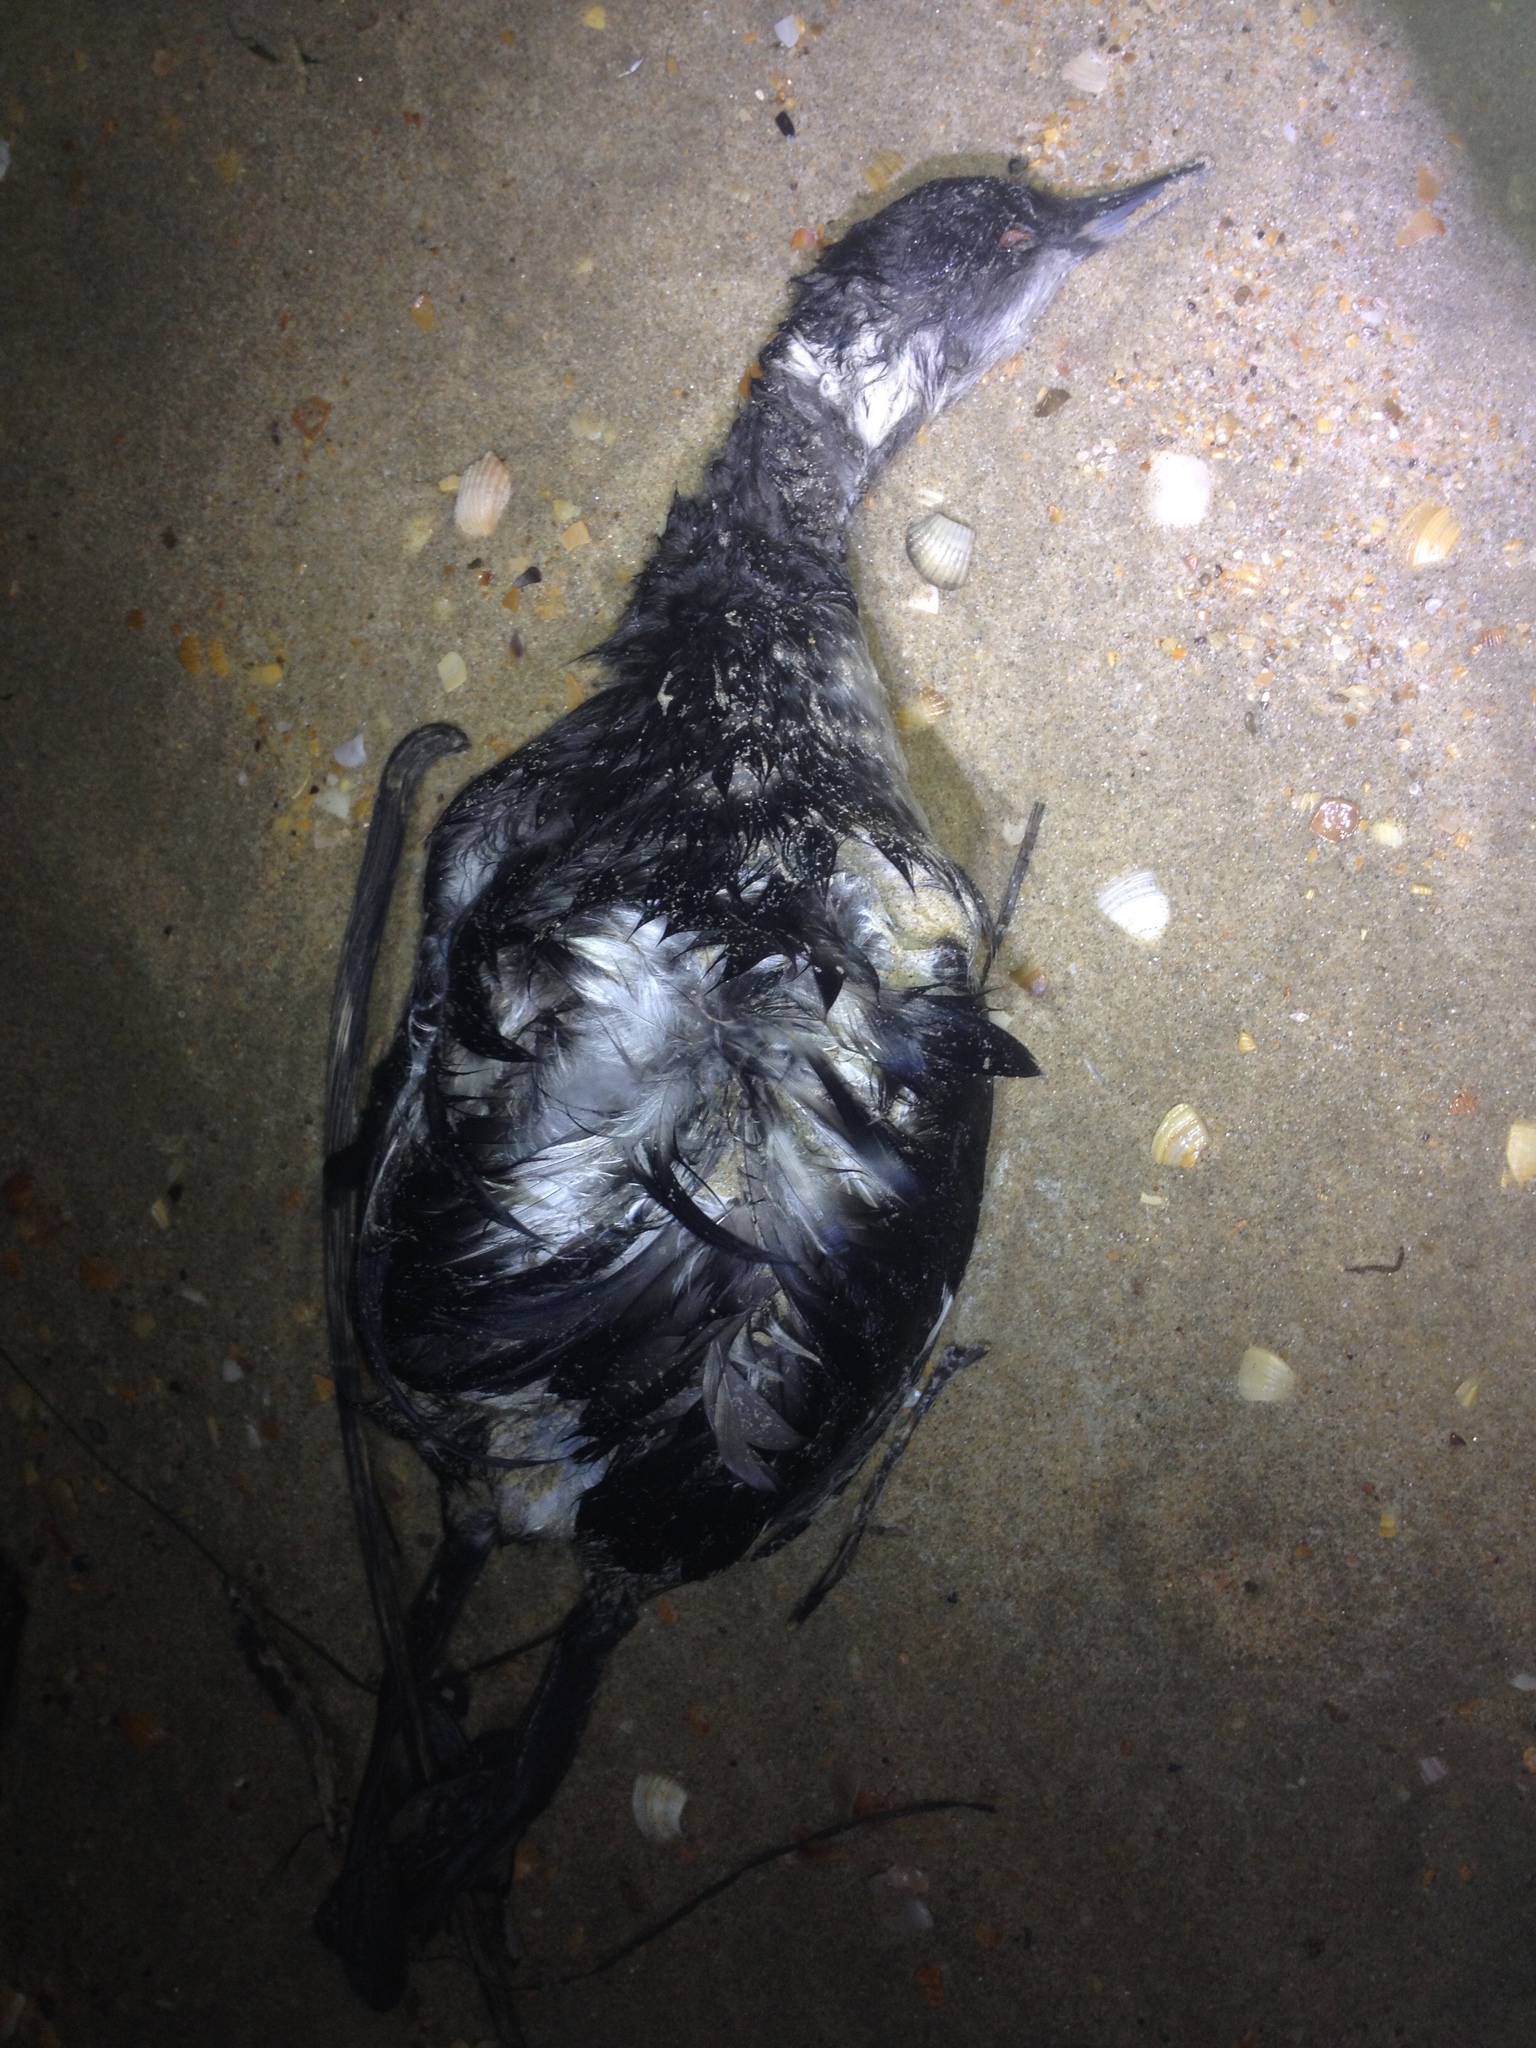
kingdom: Animalia
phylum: Chordata
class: Aves
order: Podicipediformes
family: Podicipedidae
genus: Podiceps
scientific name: Podiceps nigricollis
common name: Black-necked grebe
